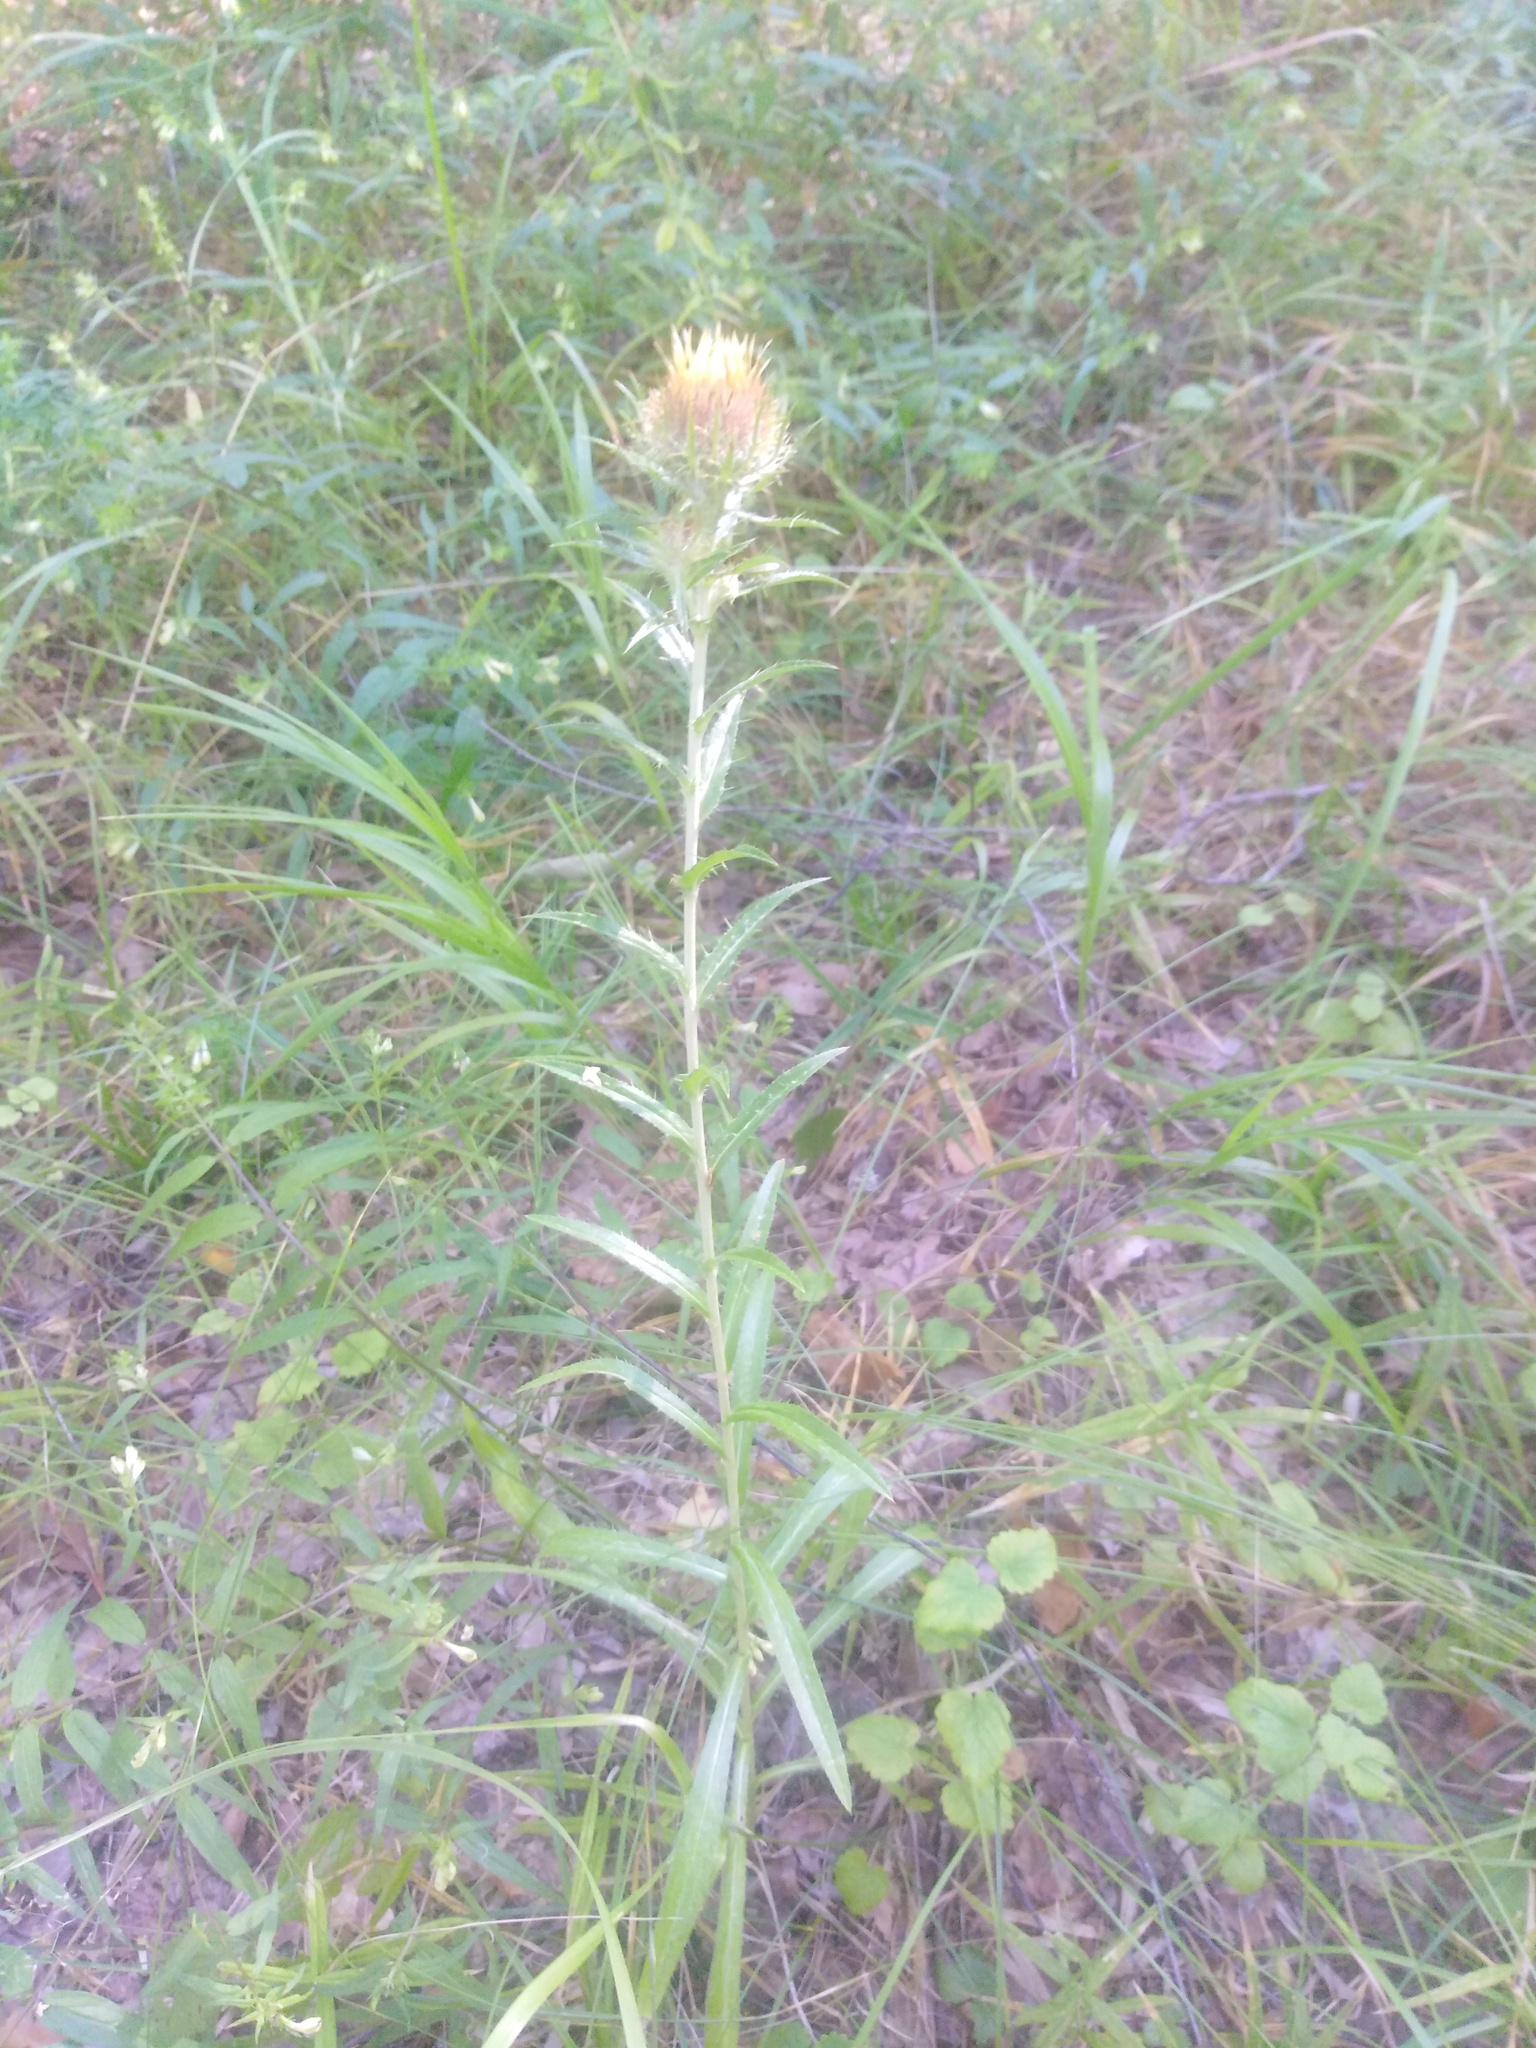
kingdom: Plantae
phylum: Tracheophyta
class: Magnoliopsida
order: Asterales
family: Asteraceae
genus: Carlina
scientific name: Carlina biebersteinii
